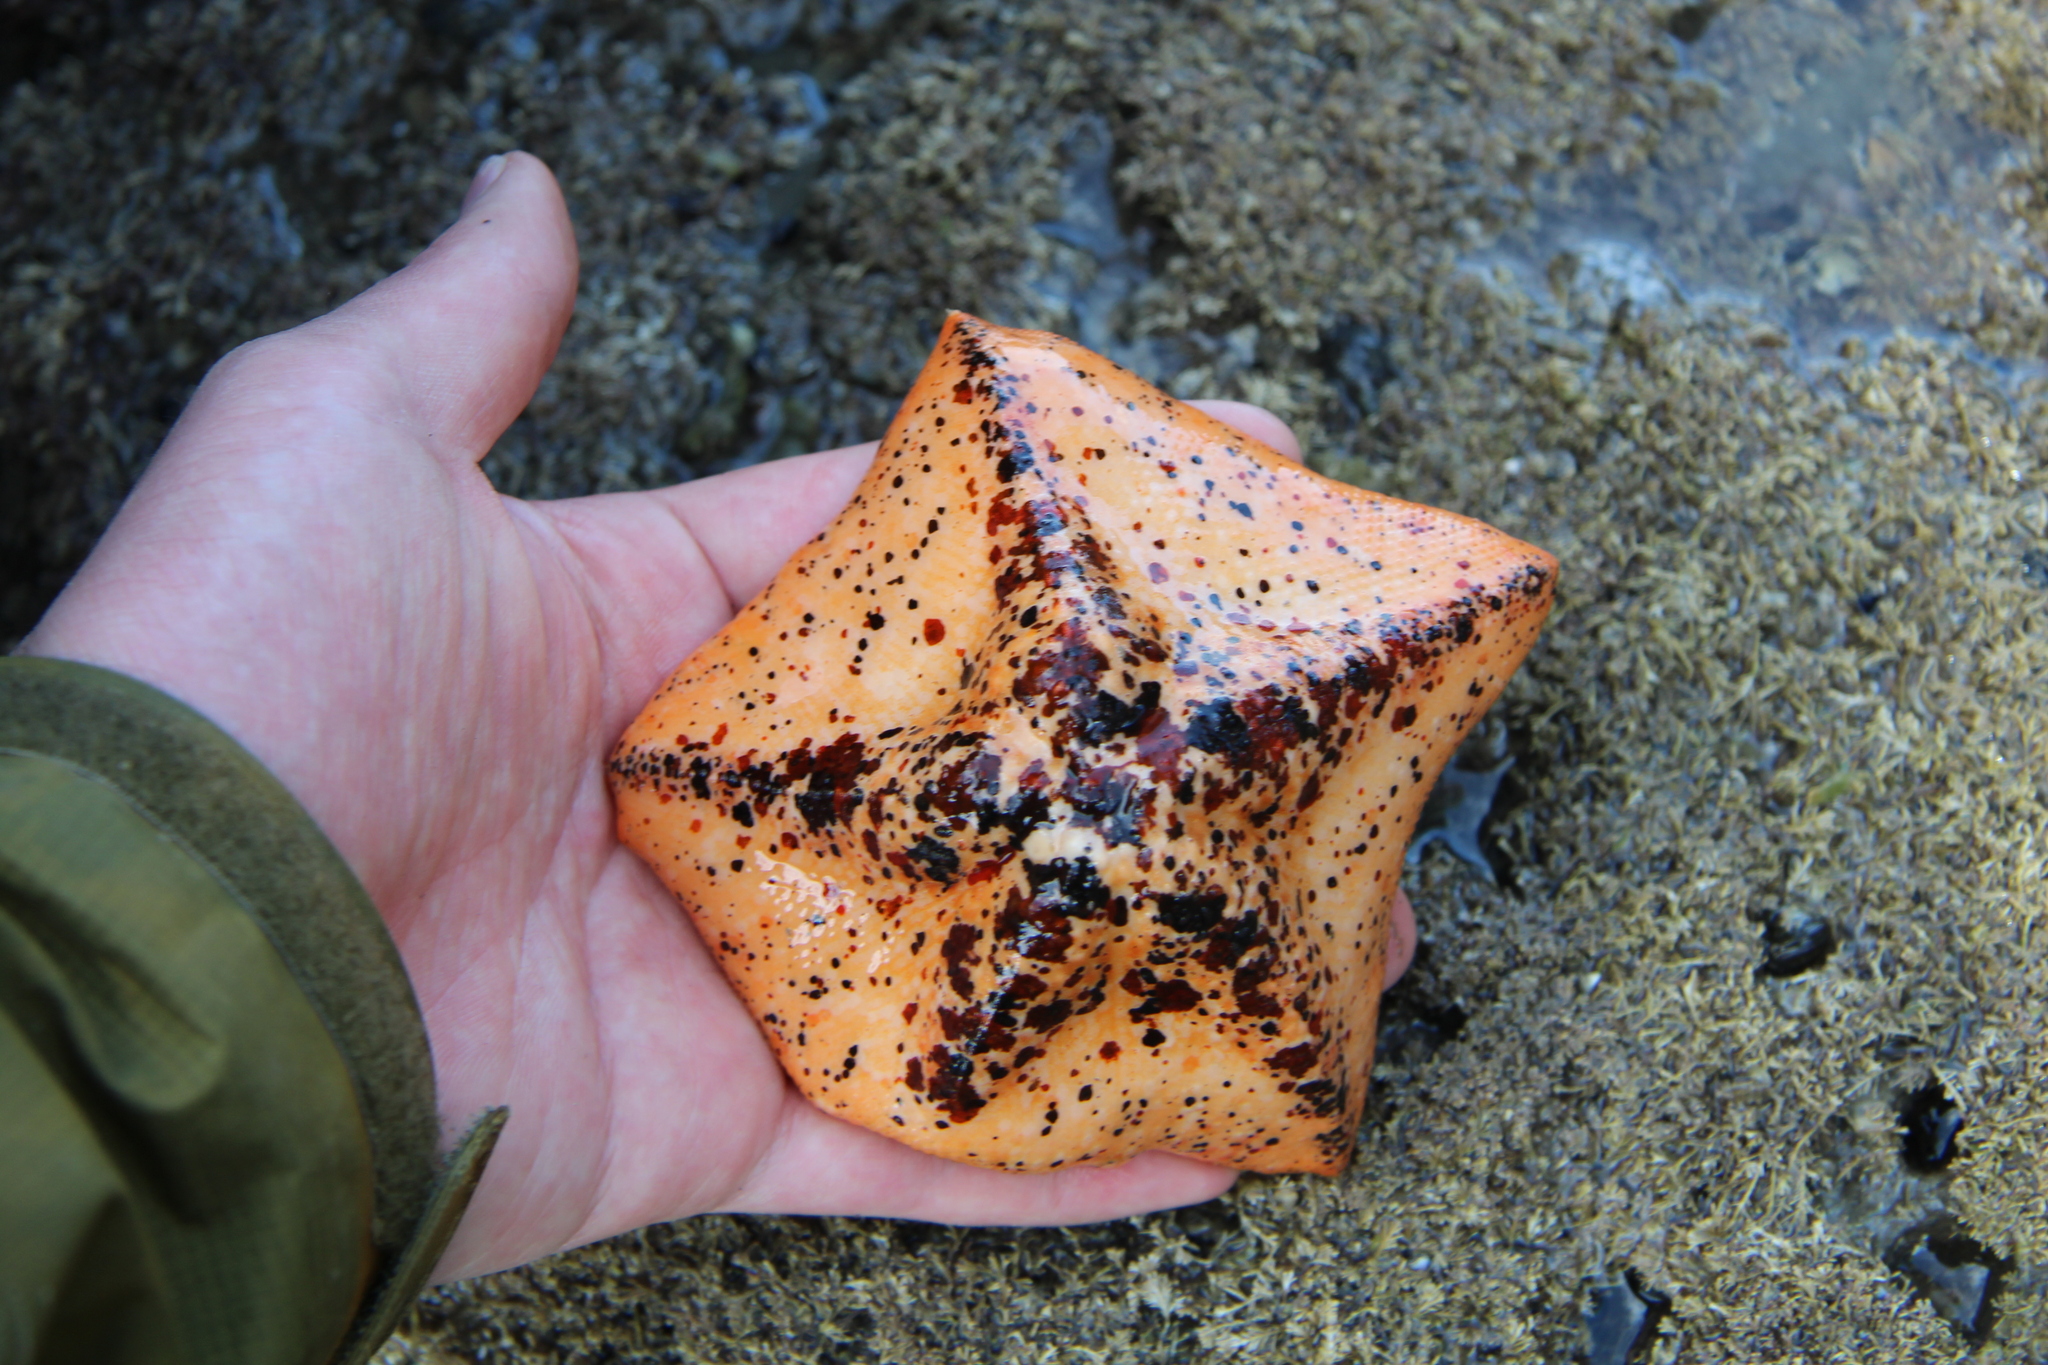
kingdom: Animalia
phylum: Echinodermata
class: Asteroidea
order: Valvatida
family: Asterinidae
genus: Stegnaster
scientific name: Stegnaster inflatus
